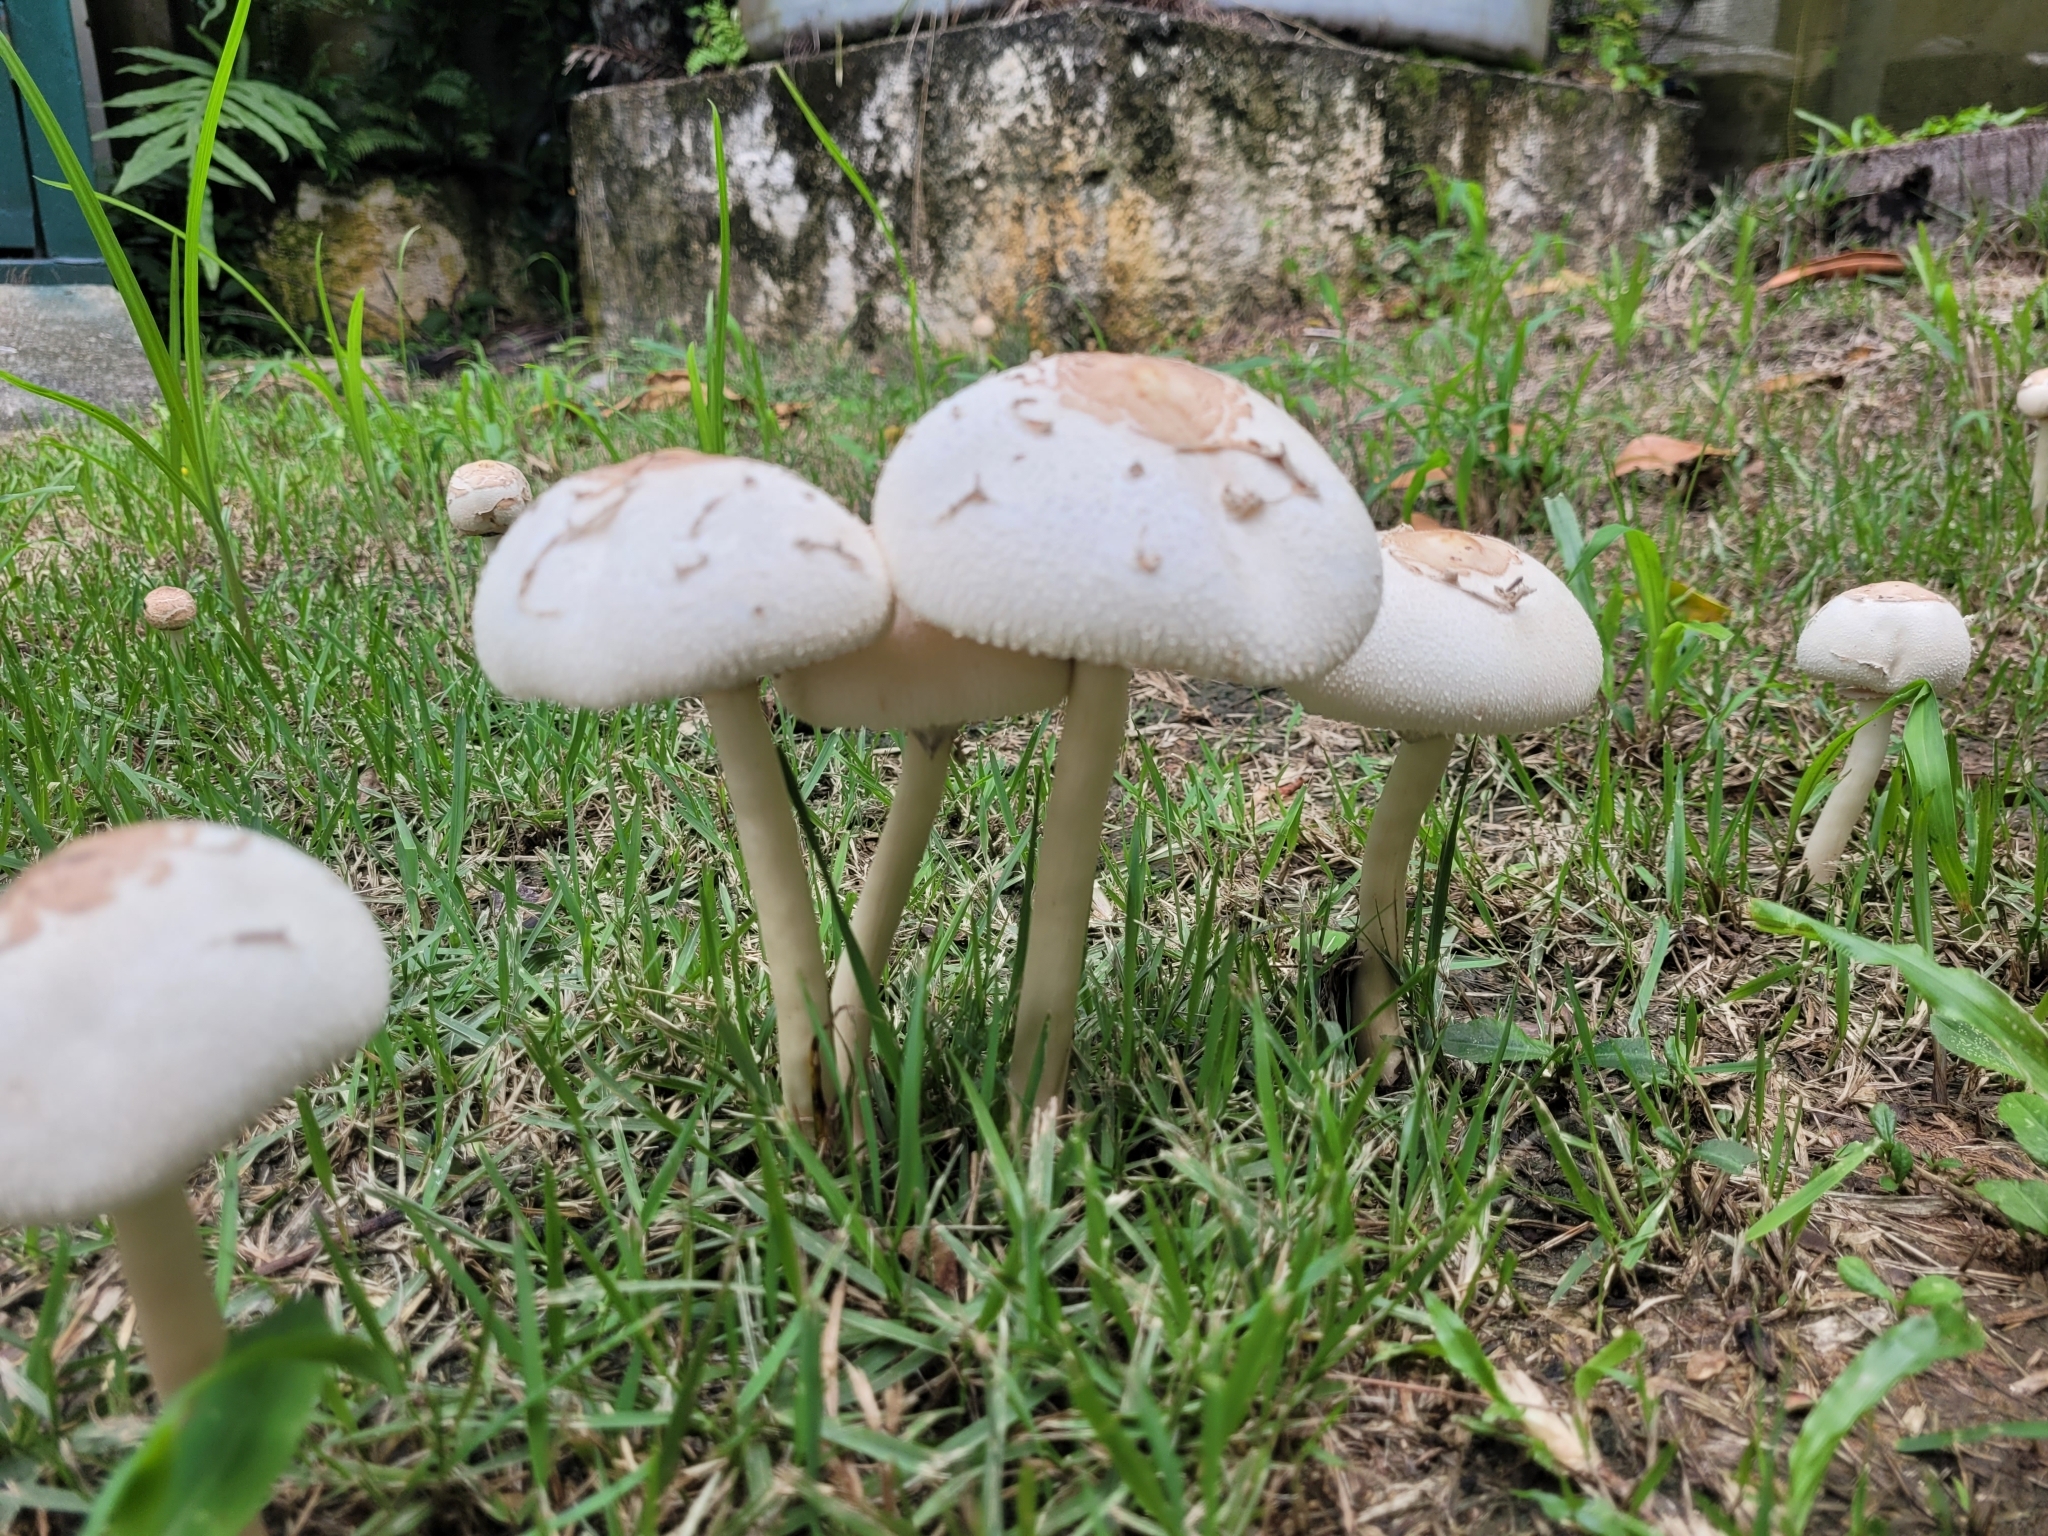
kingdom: Fungi
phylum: Basidiomycota
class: Agaricomycetes
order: Agaricales
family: Agaricaceae
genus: Chlorophyllum
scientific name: Chlorophyllum molybdites
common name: False parasol
